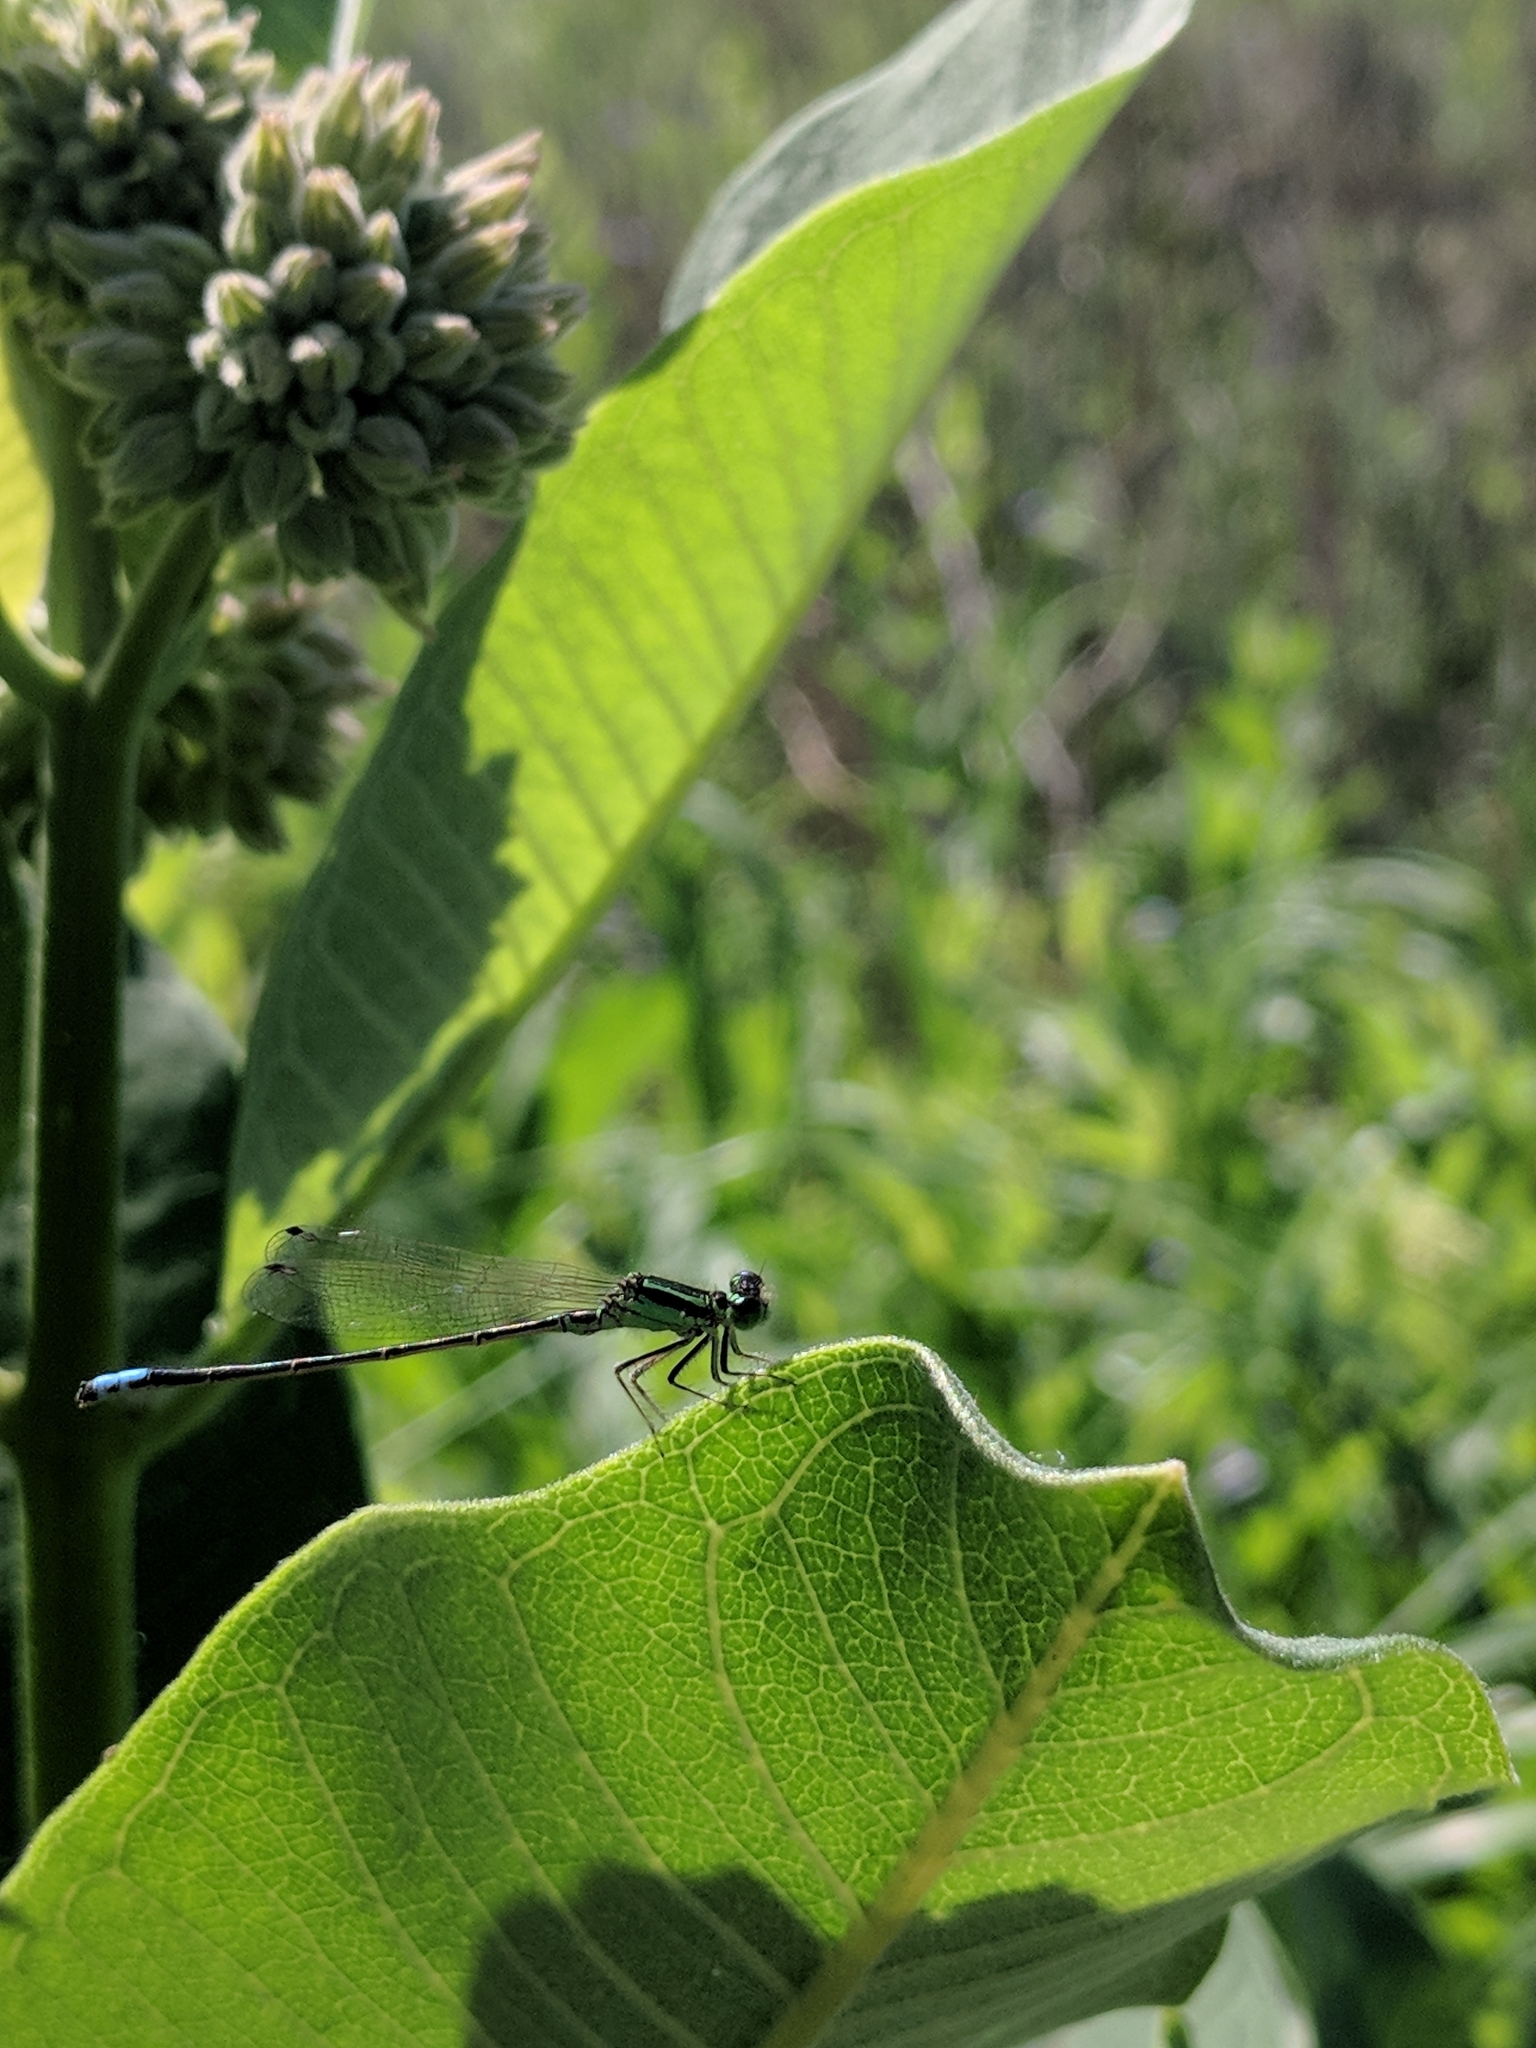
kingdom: Animalia
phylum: Arthropoda
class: Insecta
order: Odonata
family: Coenagrionidae
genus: Ischnura
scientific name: Ischnura verticalis
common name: Eastern forktail
